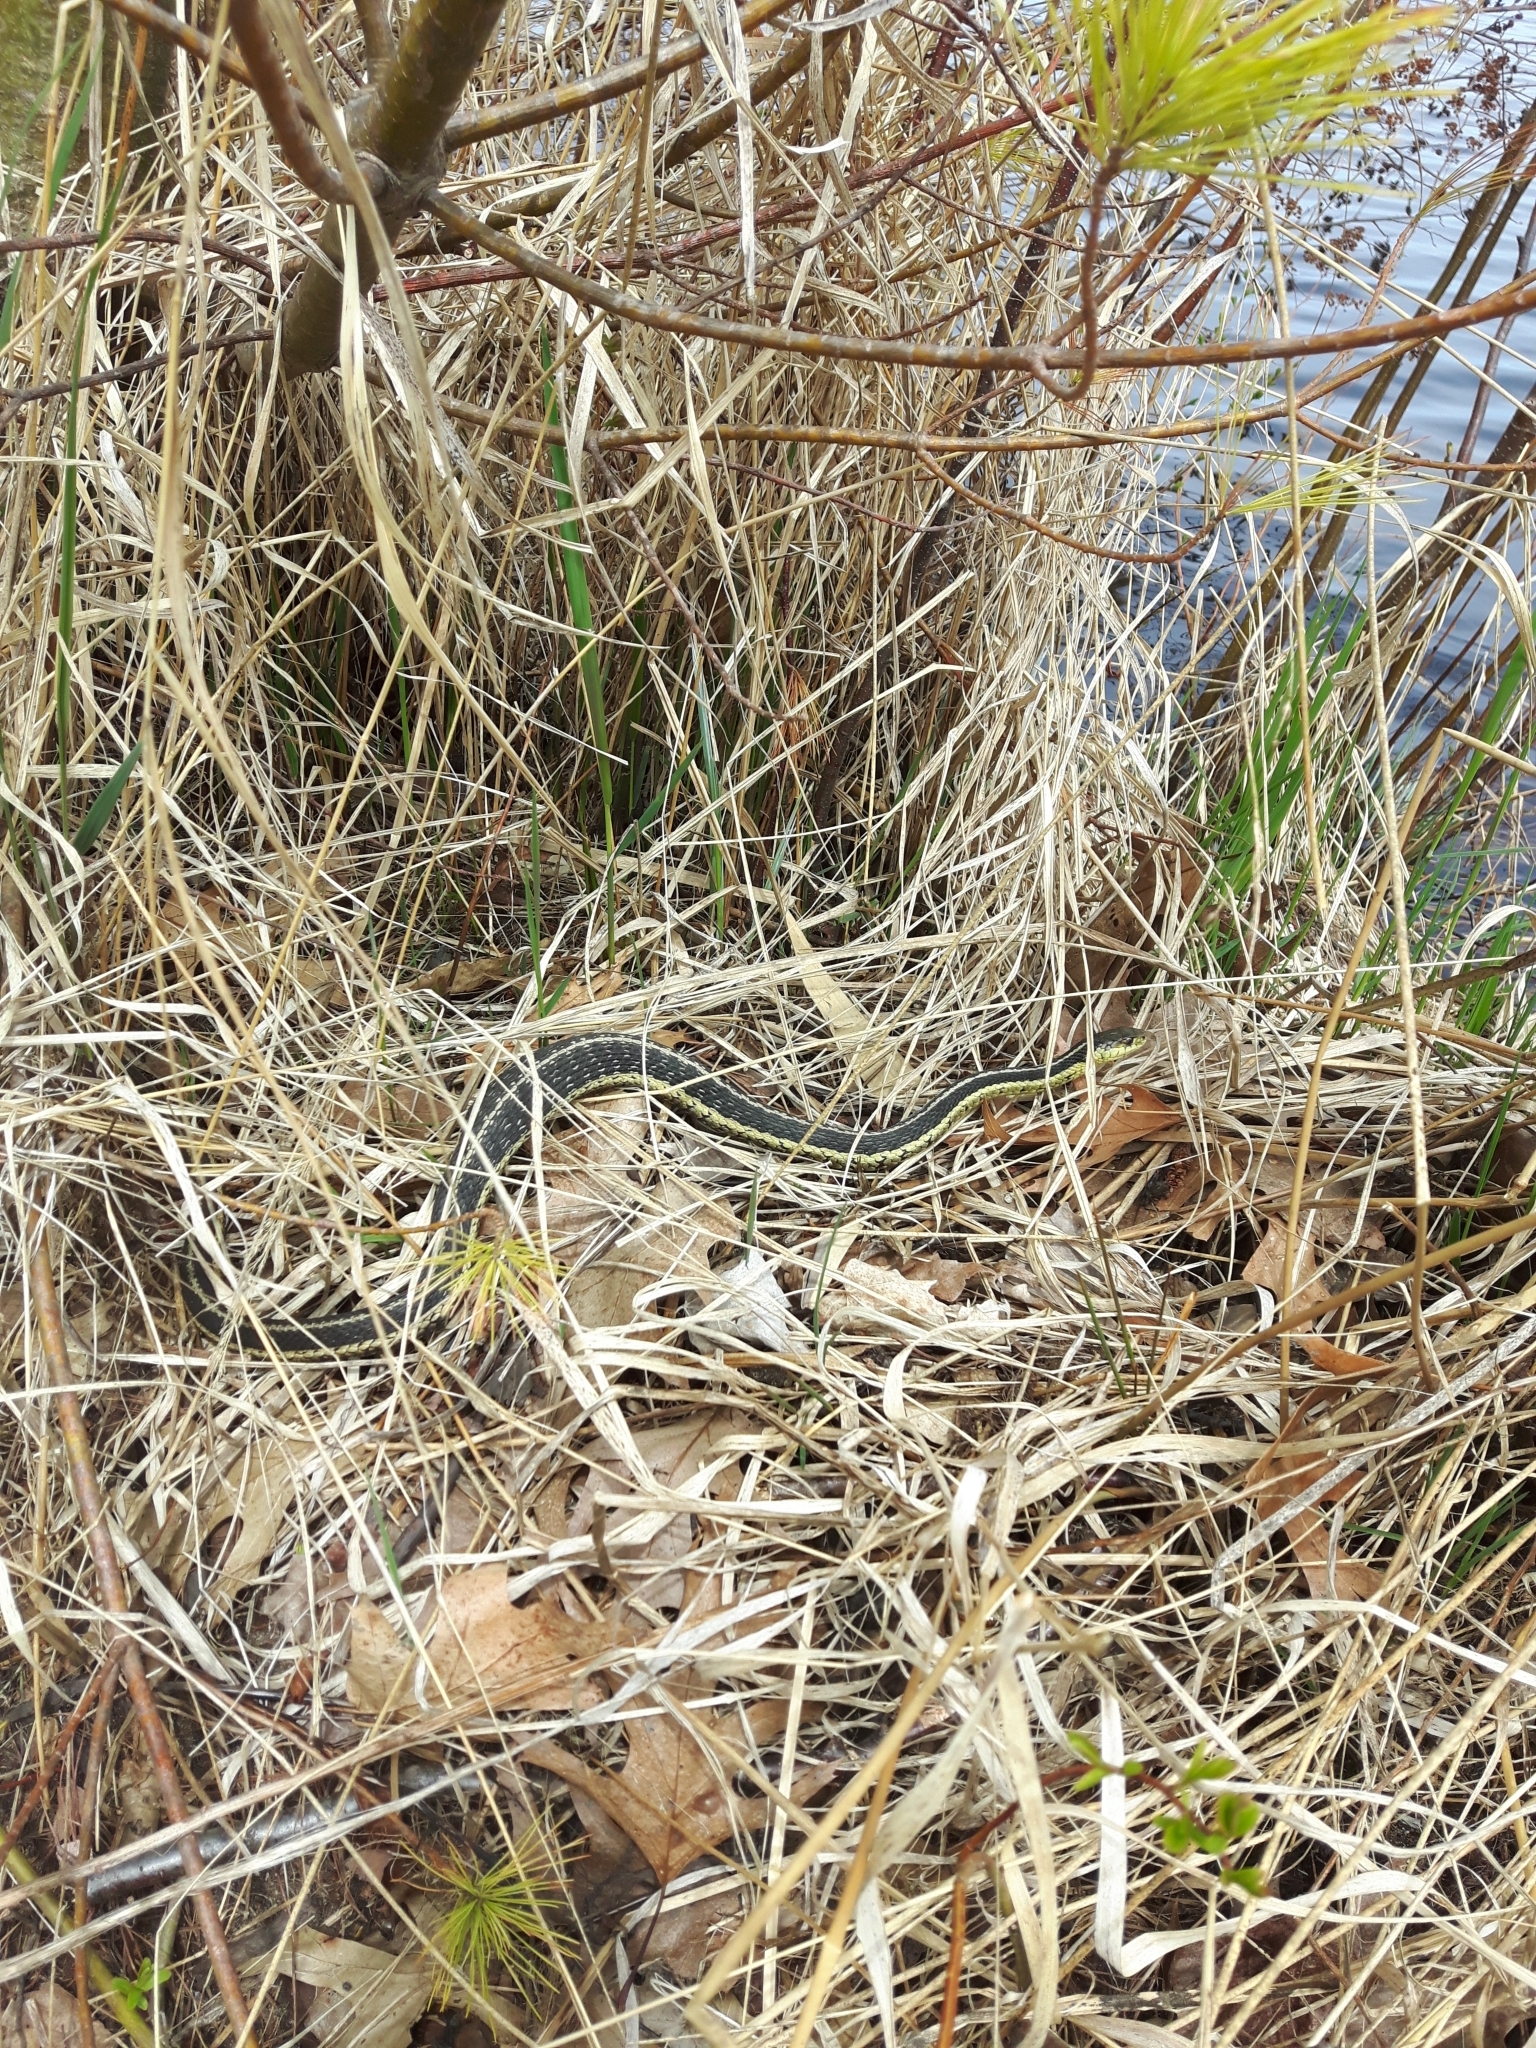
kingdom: Animalia
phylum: Chordata
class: Squamata
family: Colubridae
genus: Thamnophis
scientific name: Thamnophis sirtalis
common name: Common garter snake
